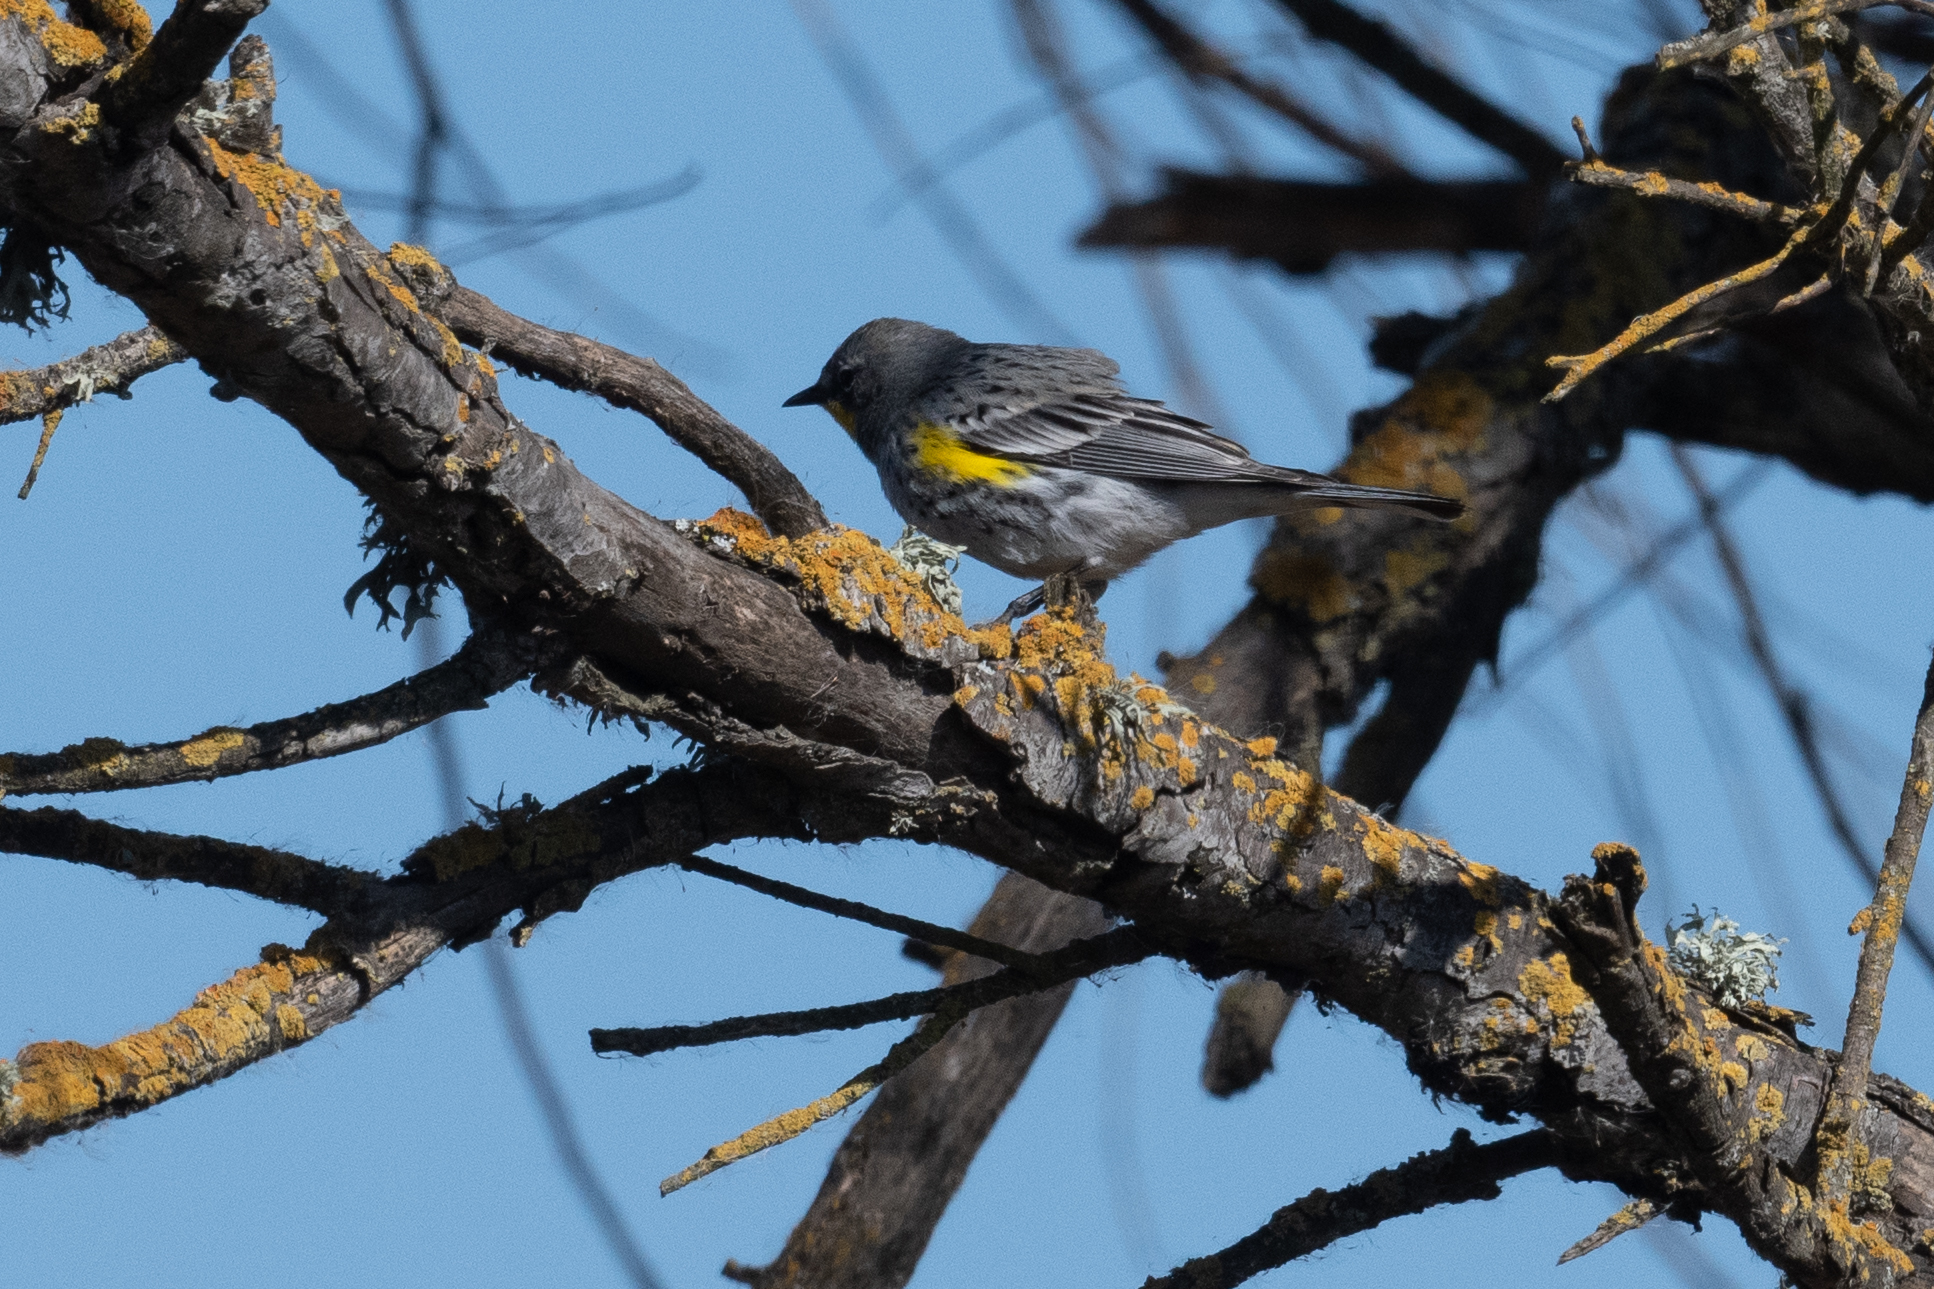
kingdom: Animalia
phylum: Chordata
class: Aves
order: Passeriformes
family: Parulidae
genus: Setophaga
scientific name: Setophaga coronata
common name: Myrtle warbler
